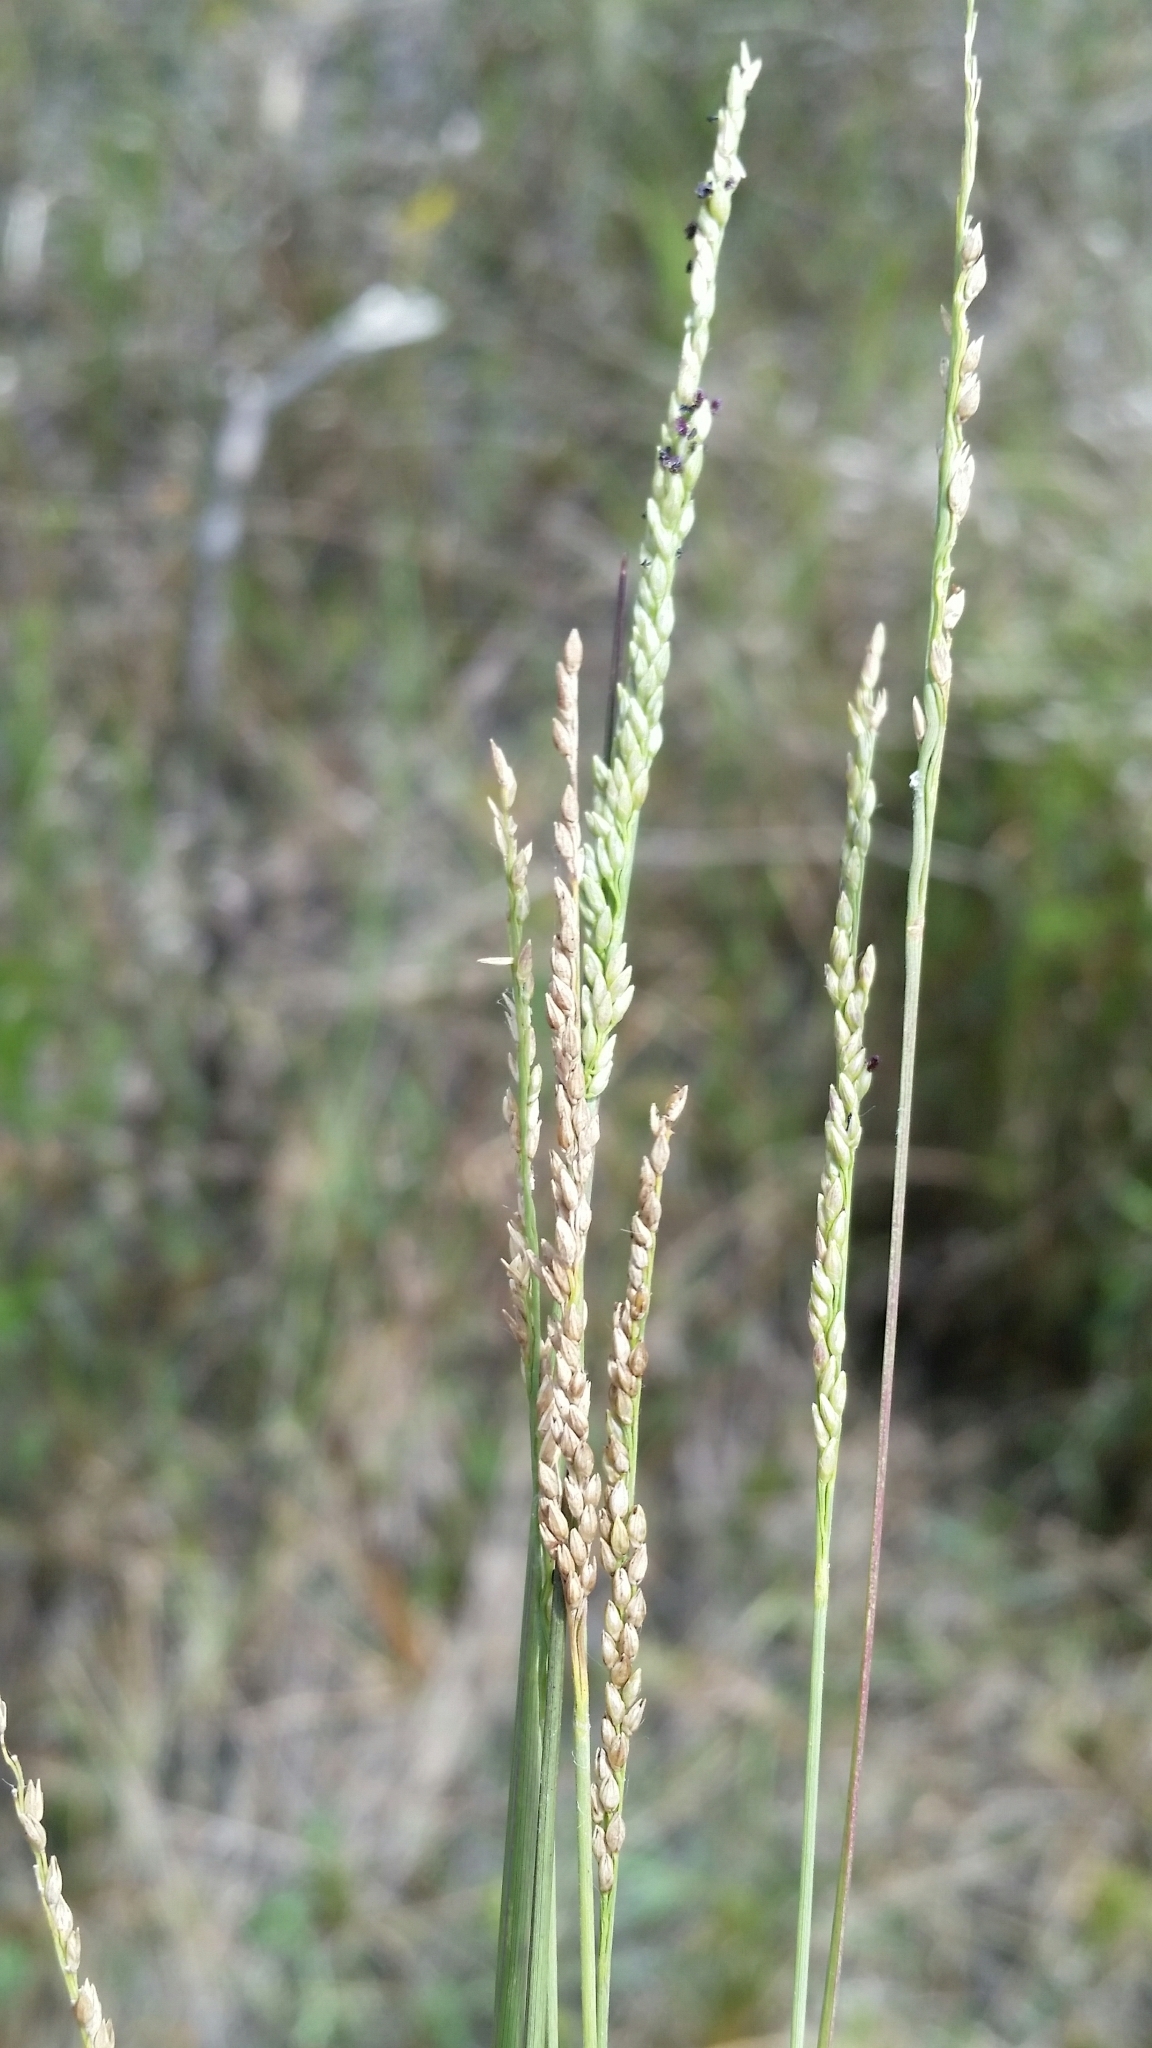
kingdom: Plantae
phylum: Tracheophyta
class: Liliopsida
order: Poales
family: Poaceae
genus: Coleataenia
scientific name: Coleataenia tenera
